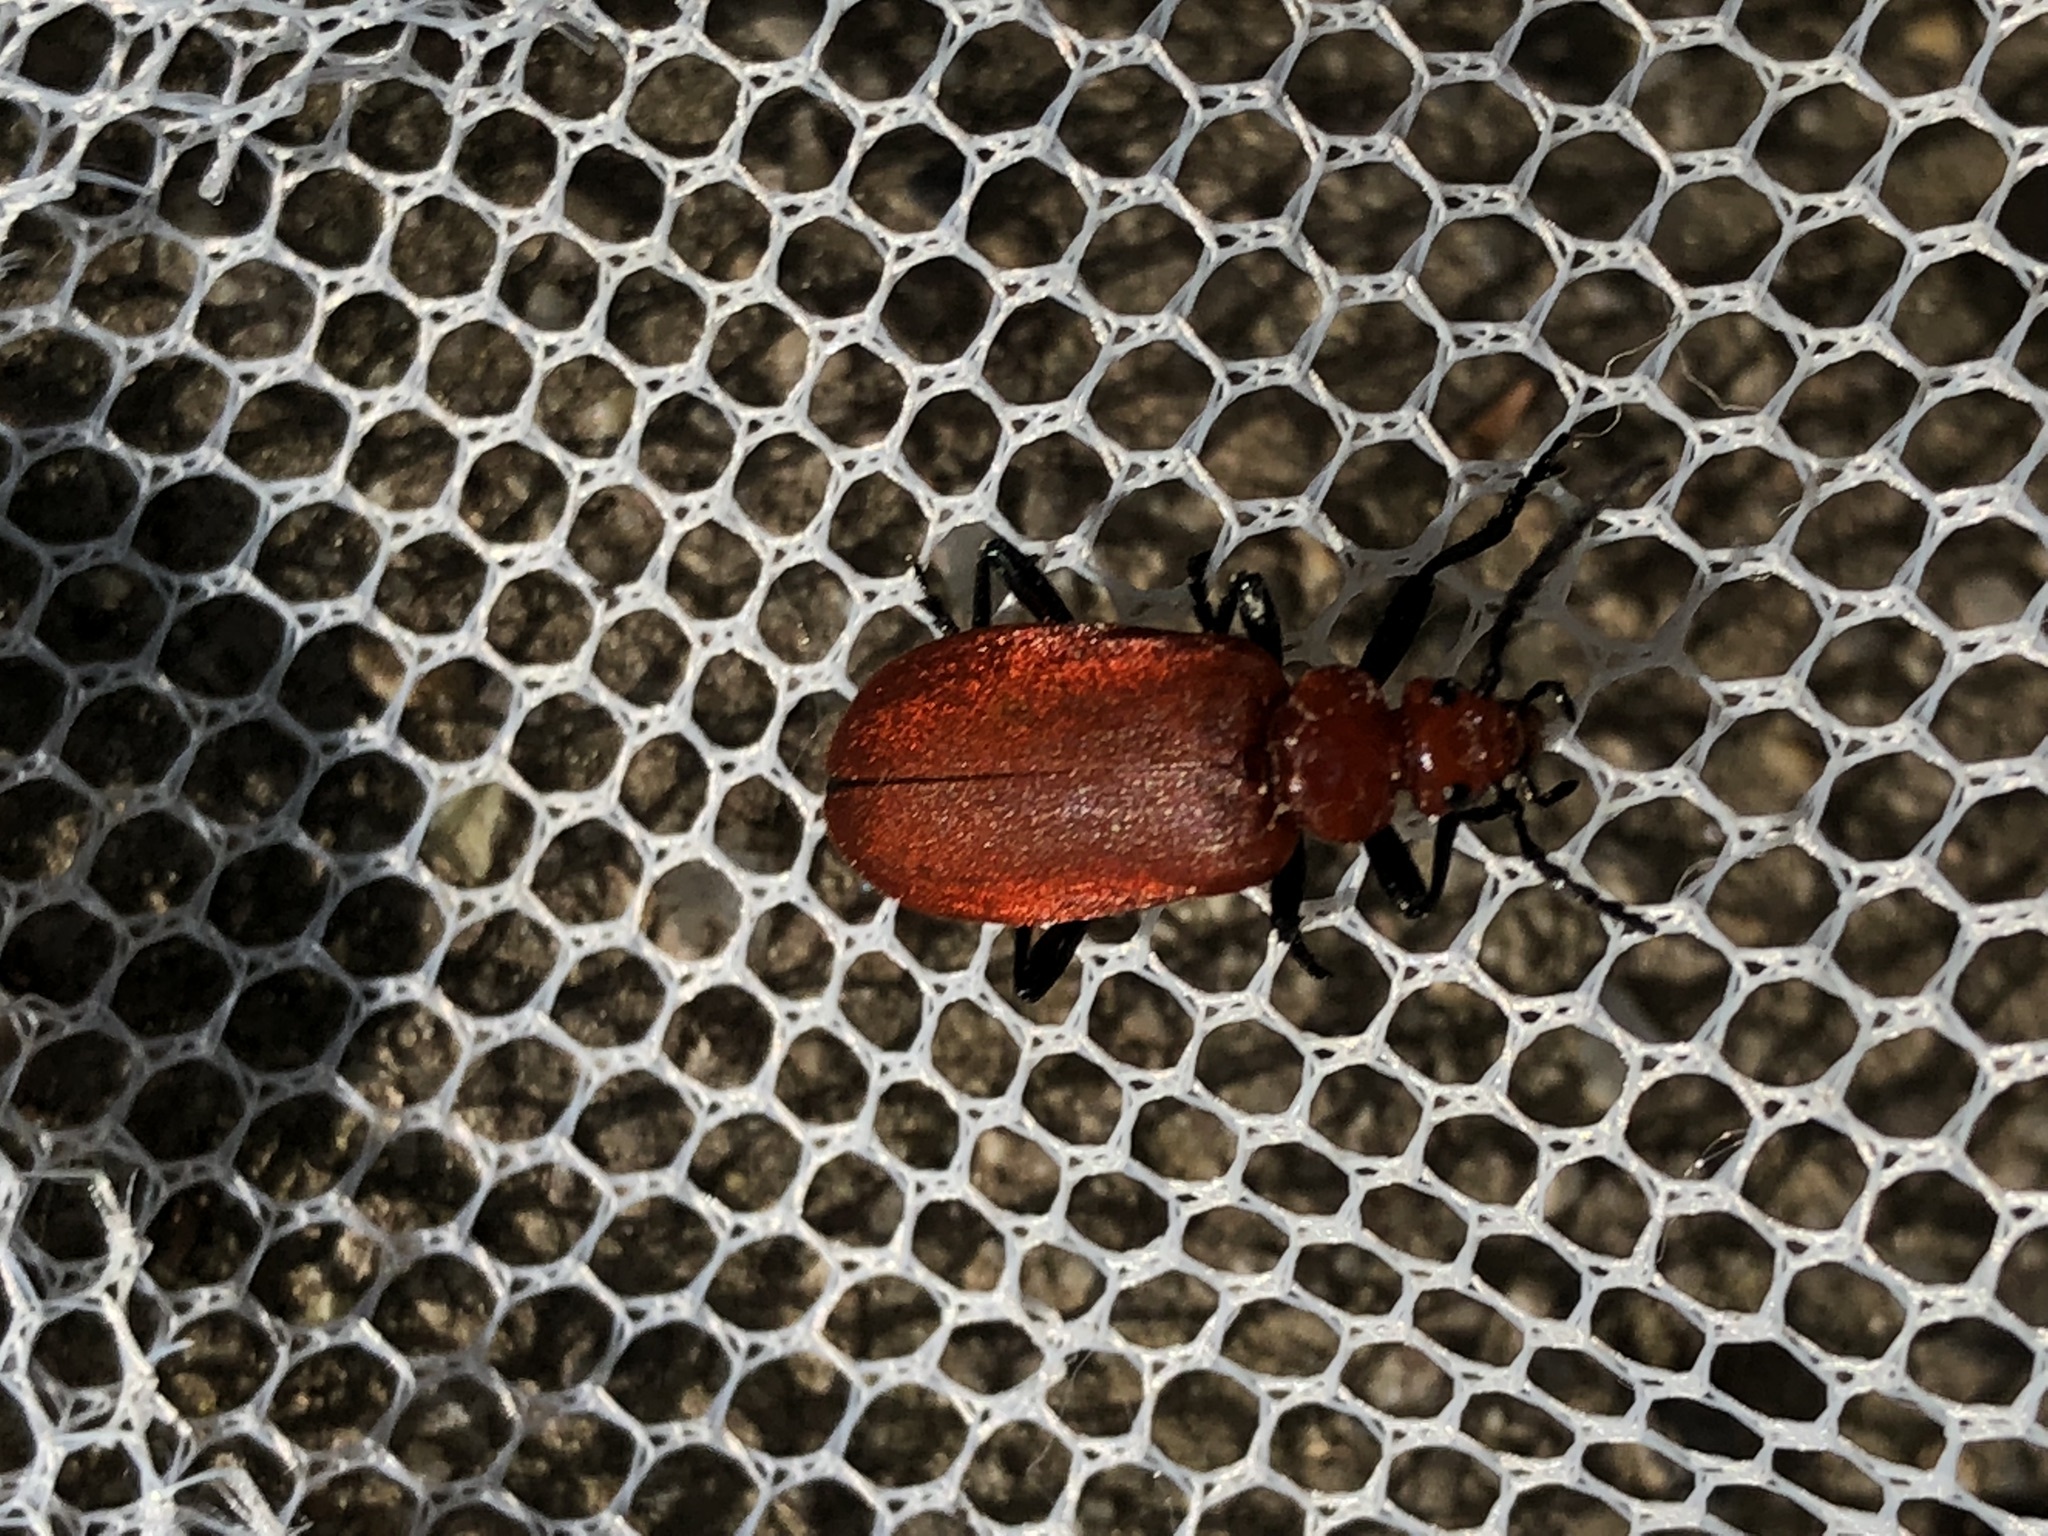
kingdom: Animalia
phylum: Arthropoda
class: Insecta
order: Coleoptera
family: Pyrochroidae
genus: Pyrochroa
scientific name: Pyrochroa serraticornis
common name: Red-headed cardinal beetle
